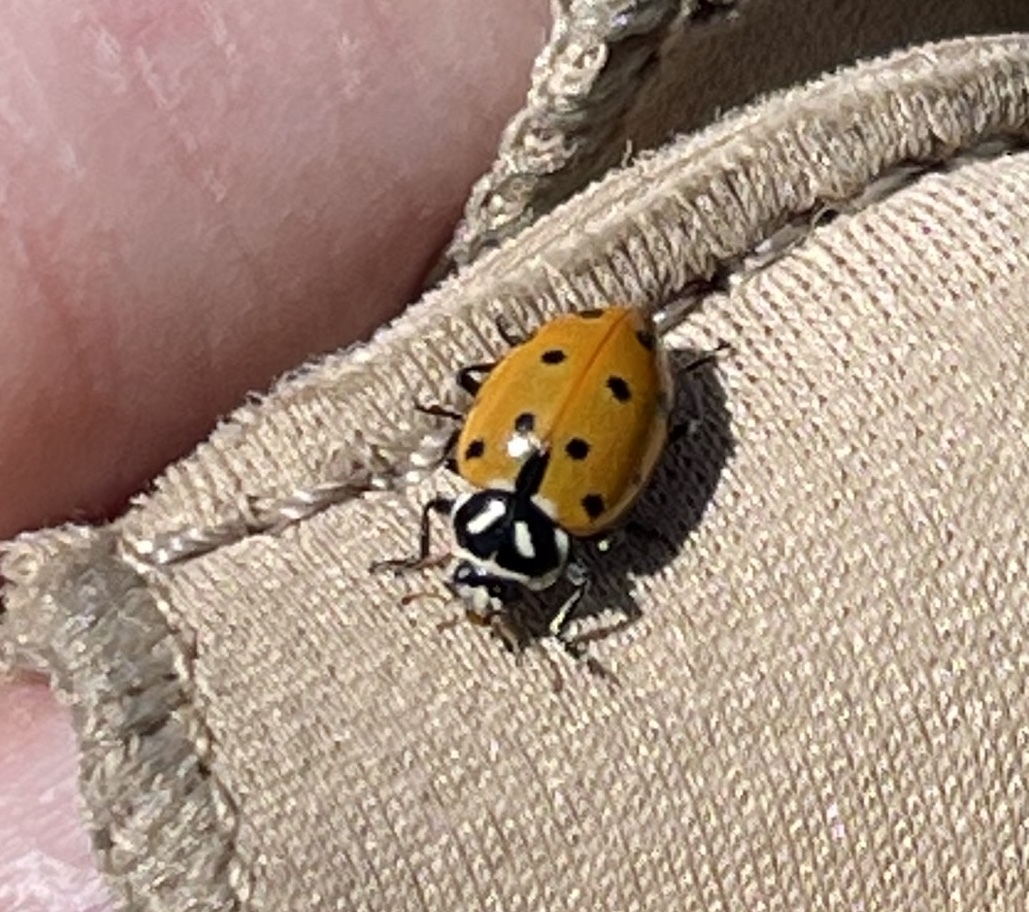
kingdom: Animalia
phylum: Arthropoda
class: Insecta
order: Coleoptera
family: Coccinellidae
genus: Hippodamia
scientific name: Hippodamia convergens
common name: Convergent lady beetle
